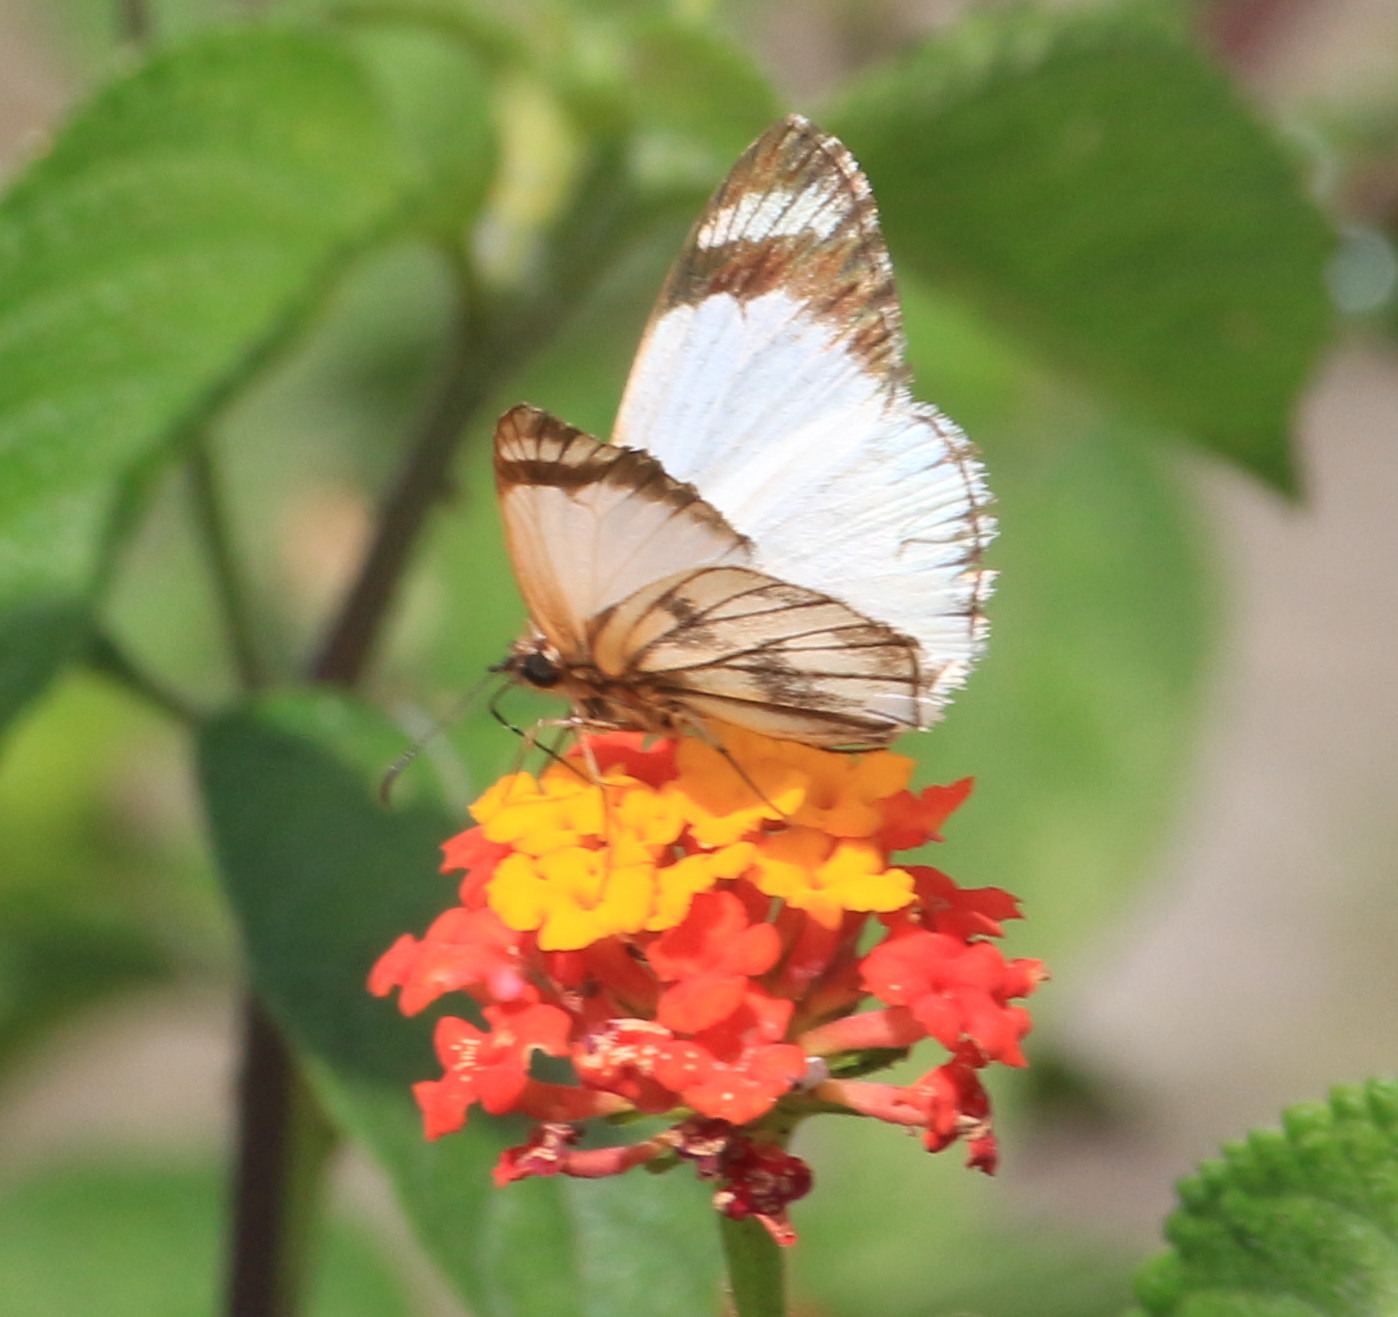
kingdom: Animalia
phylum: Arthropoda
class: Insecta
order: Lepidoptera
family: Hesperiidae
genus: Heliopetes
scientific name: Heliopetes alana
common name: Alana white-skipper
